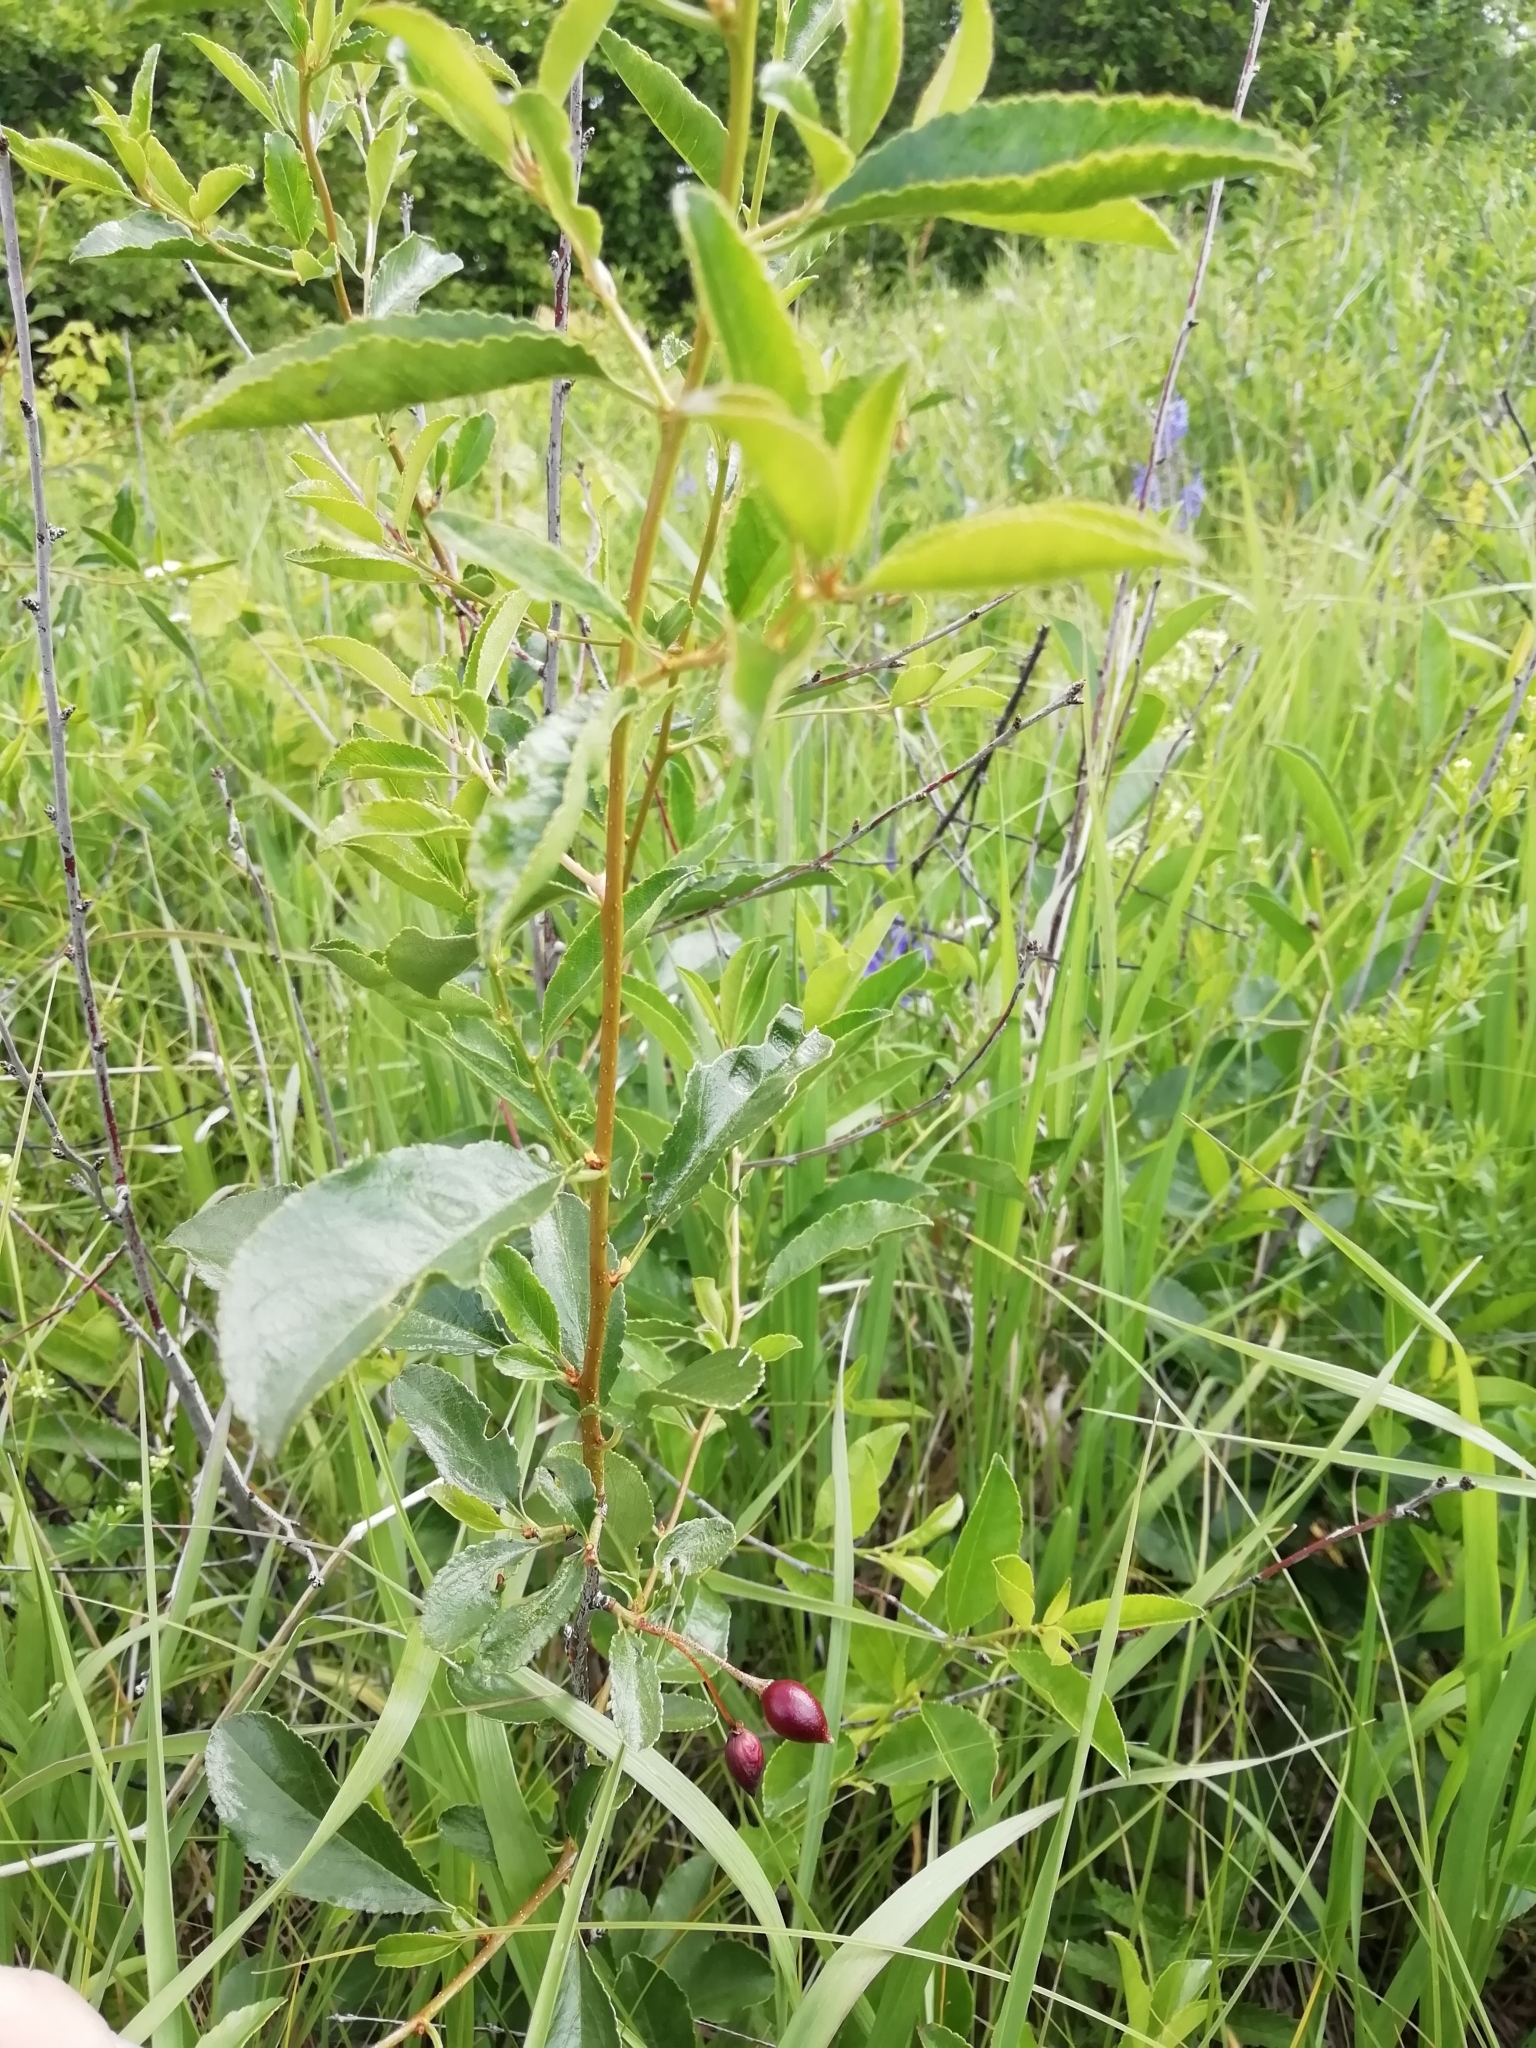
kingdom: Plantae
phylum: Tracheophyta
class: Magnoliopsida
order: Rosales
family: Rosaceae
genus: Prunus
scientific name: Prunus fruticosa
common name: European dwarf cherry
